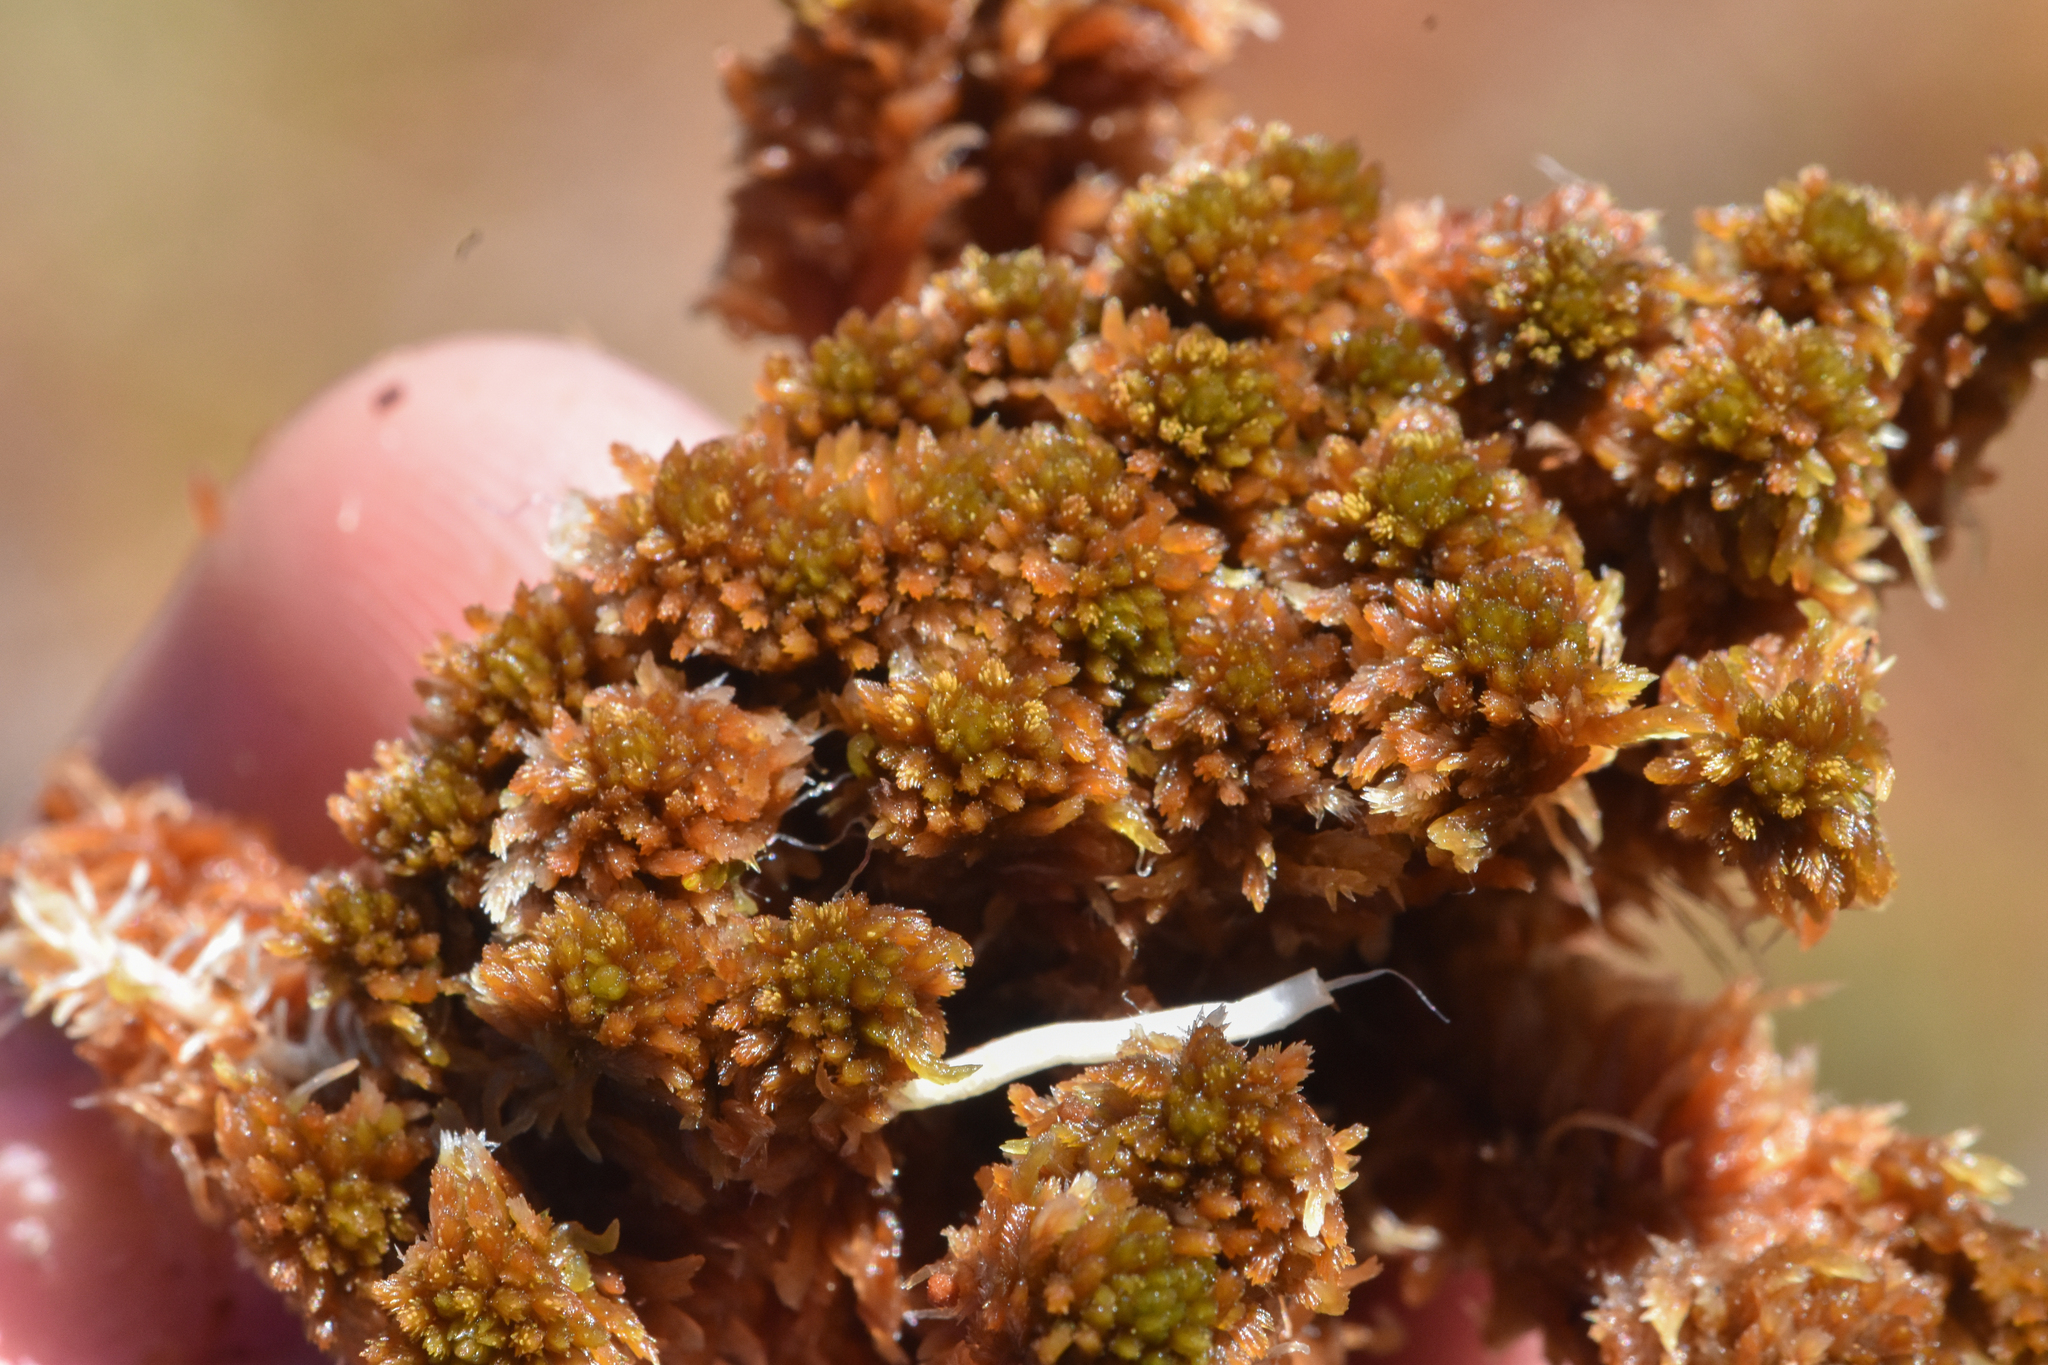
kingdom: Plantae
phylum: Bryophyta
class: Sphagnopsida
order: Sphagnales
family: Sphagnaceae
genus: Sphagnum
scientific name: Sphagnum fuscum
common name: Brown peat moss
